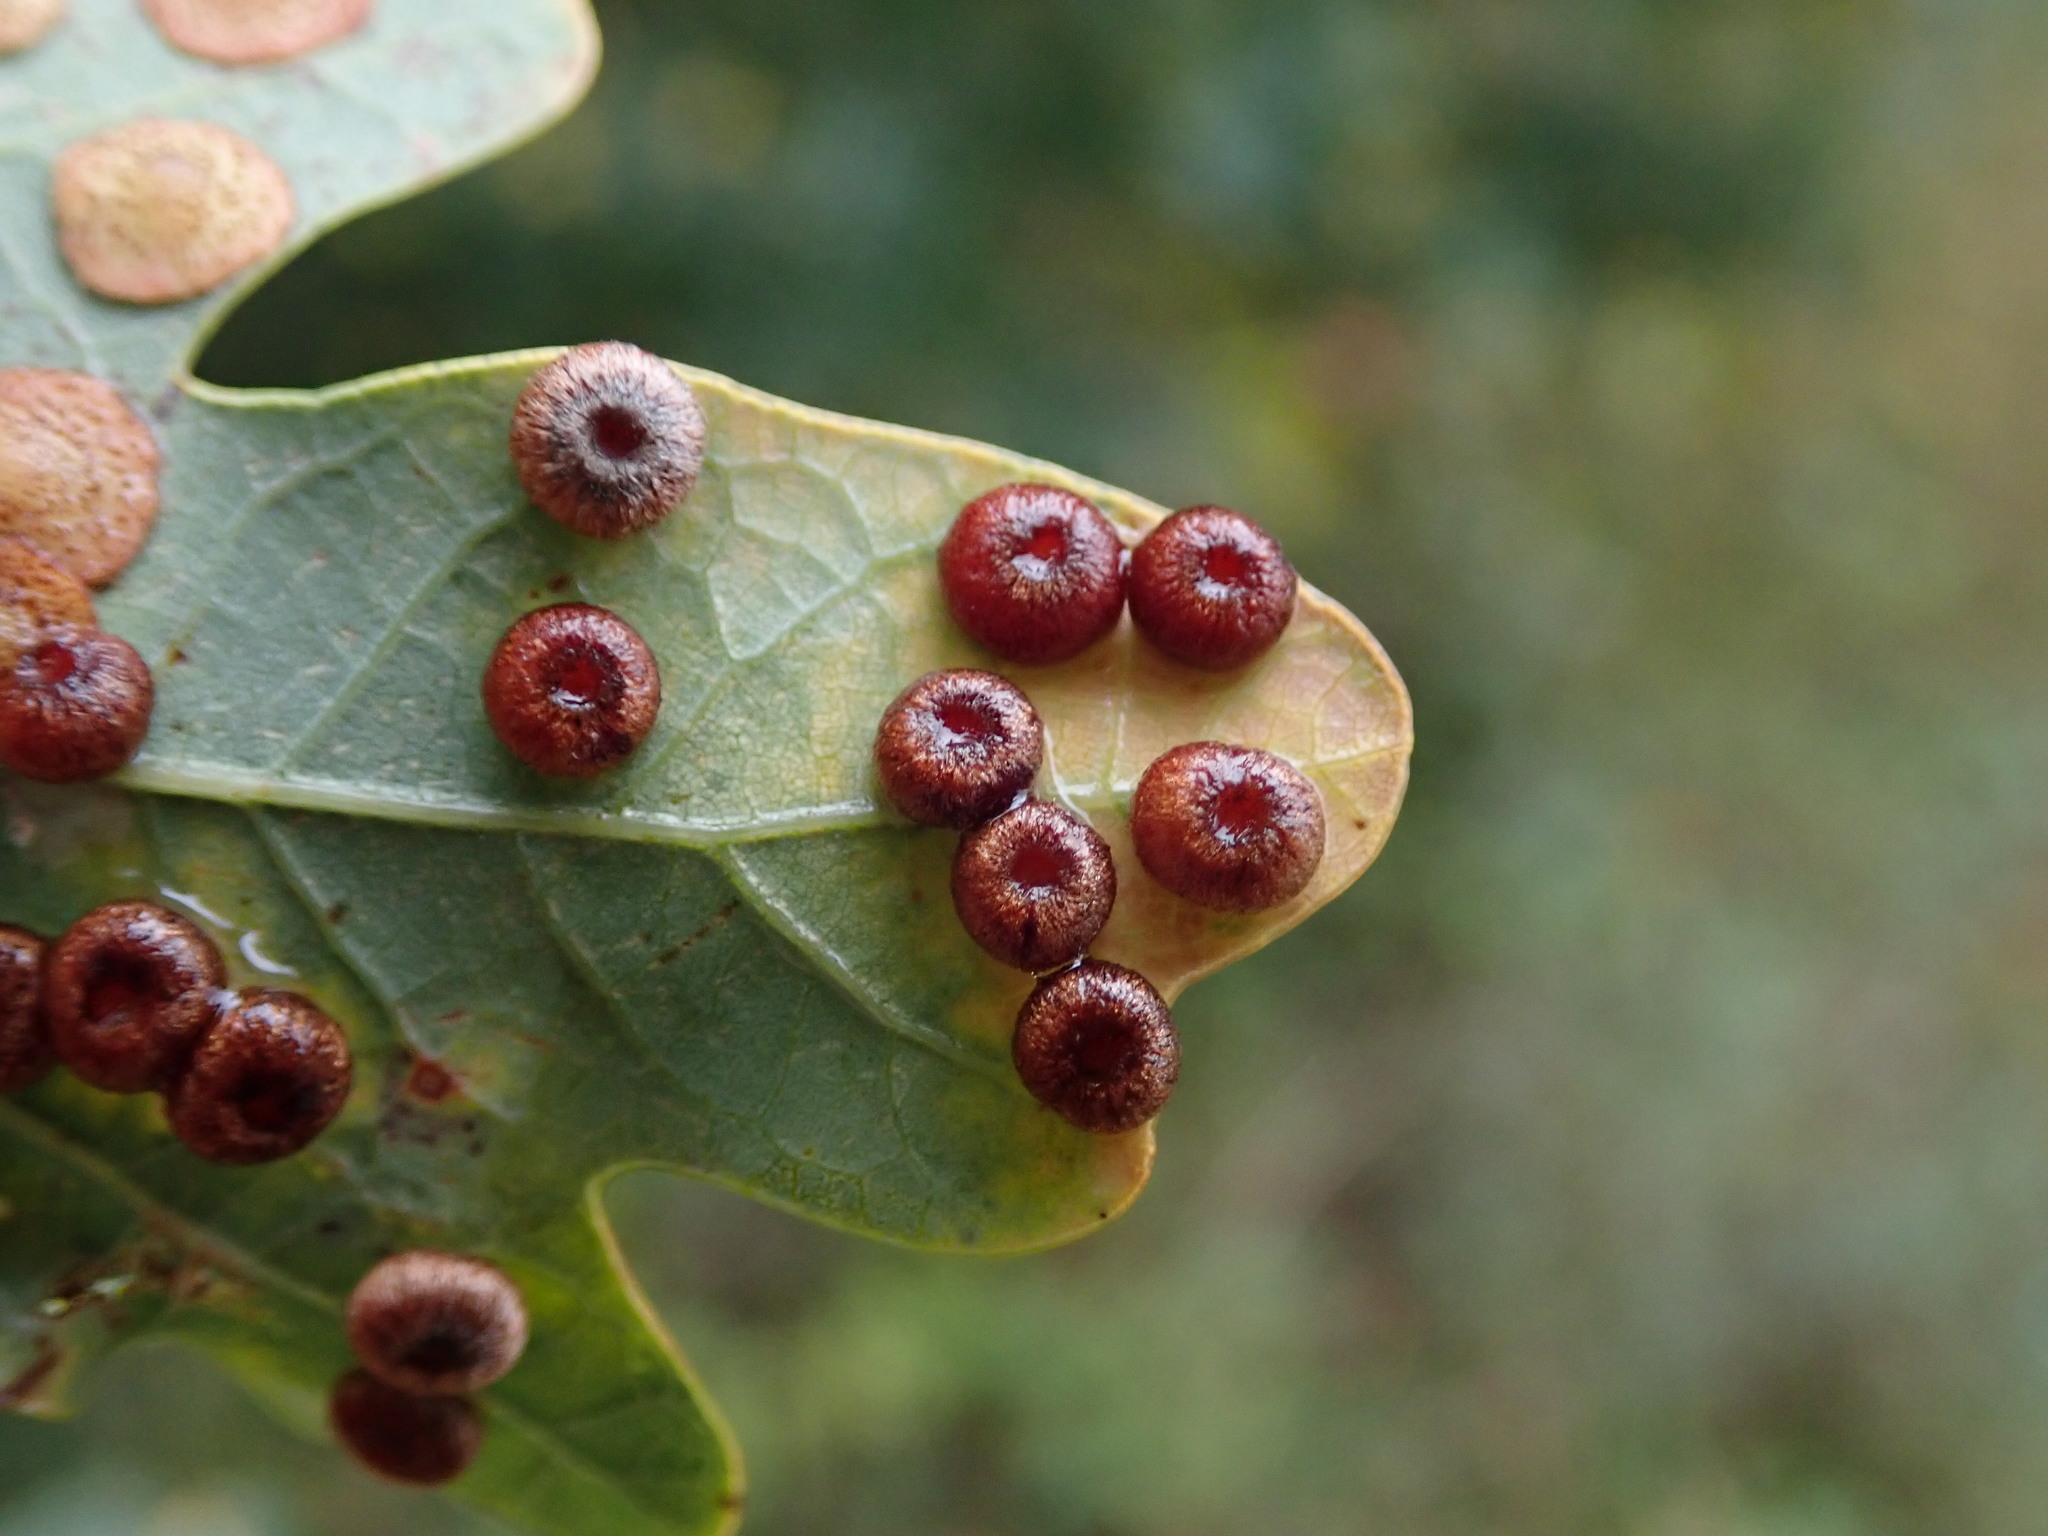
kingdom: Animalia
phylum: Arthropoda
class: Insecta
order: Hymenoptera
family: Cynipidae
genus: Neuroterus
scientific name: Neuroterus numismalis
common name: Silk-button spangle gall
